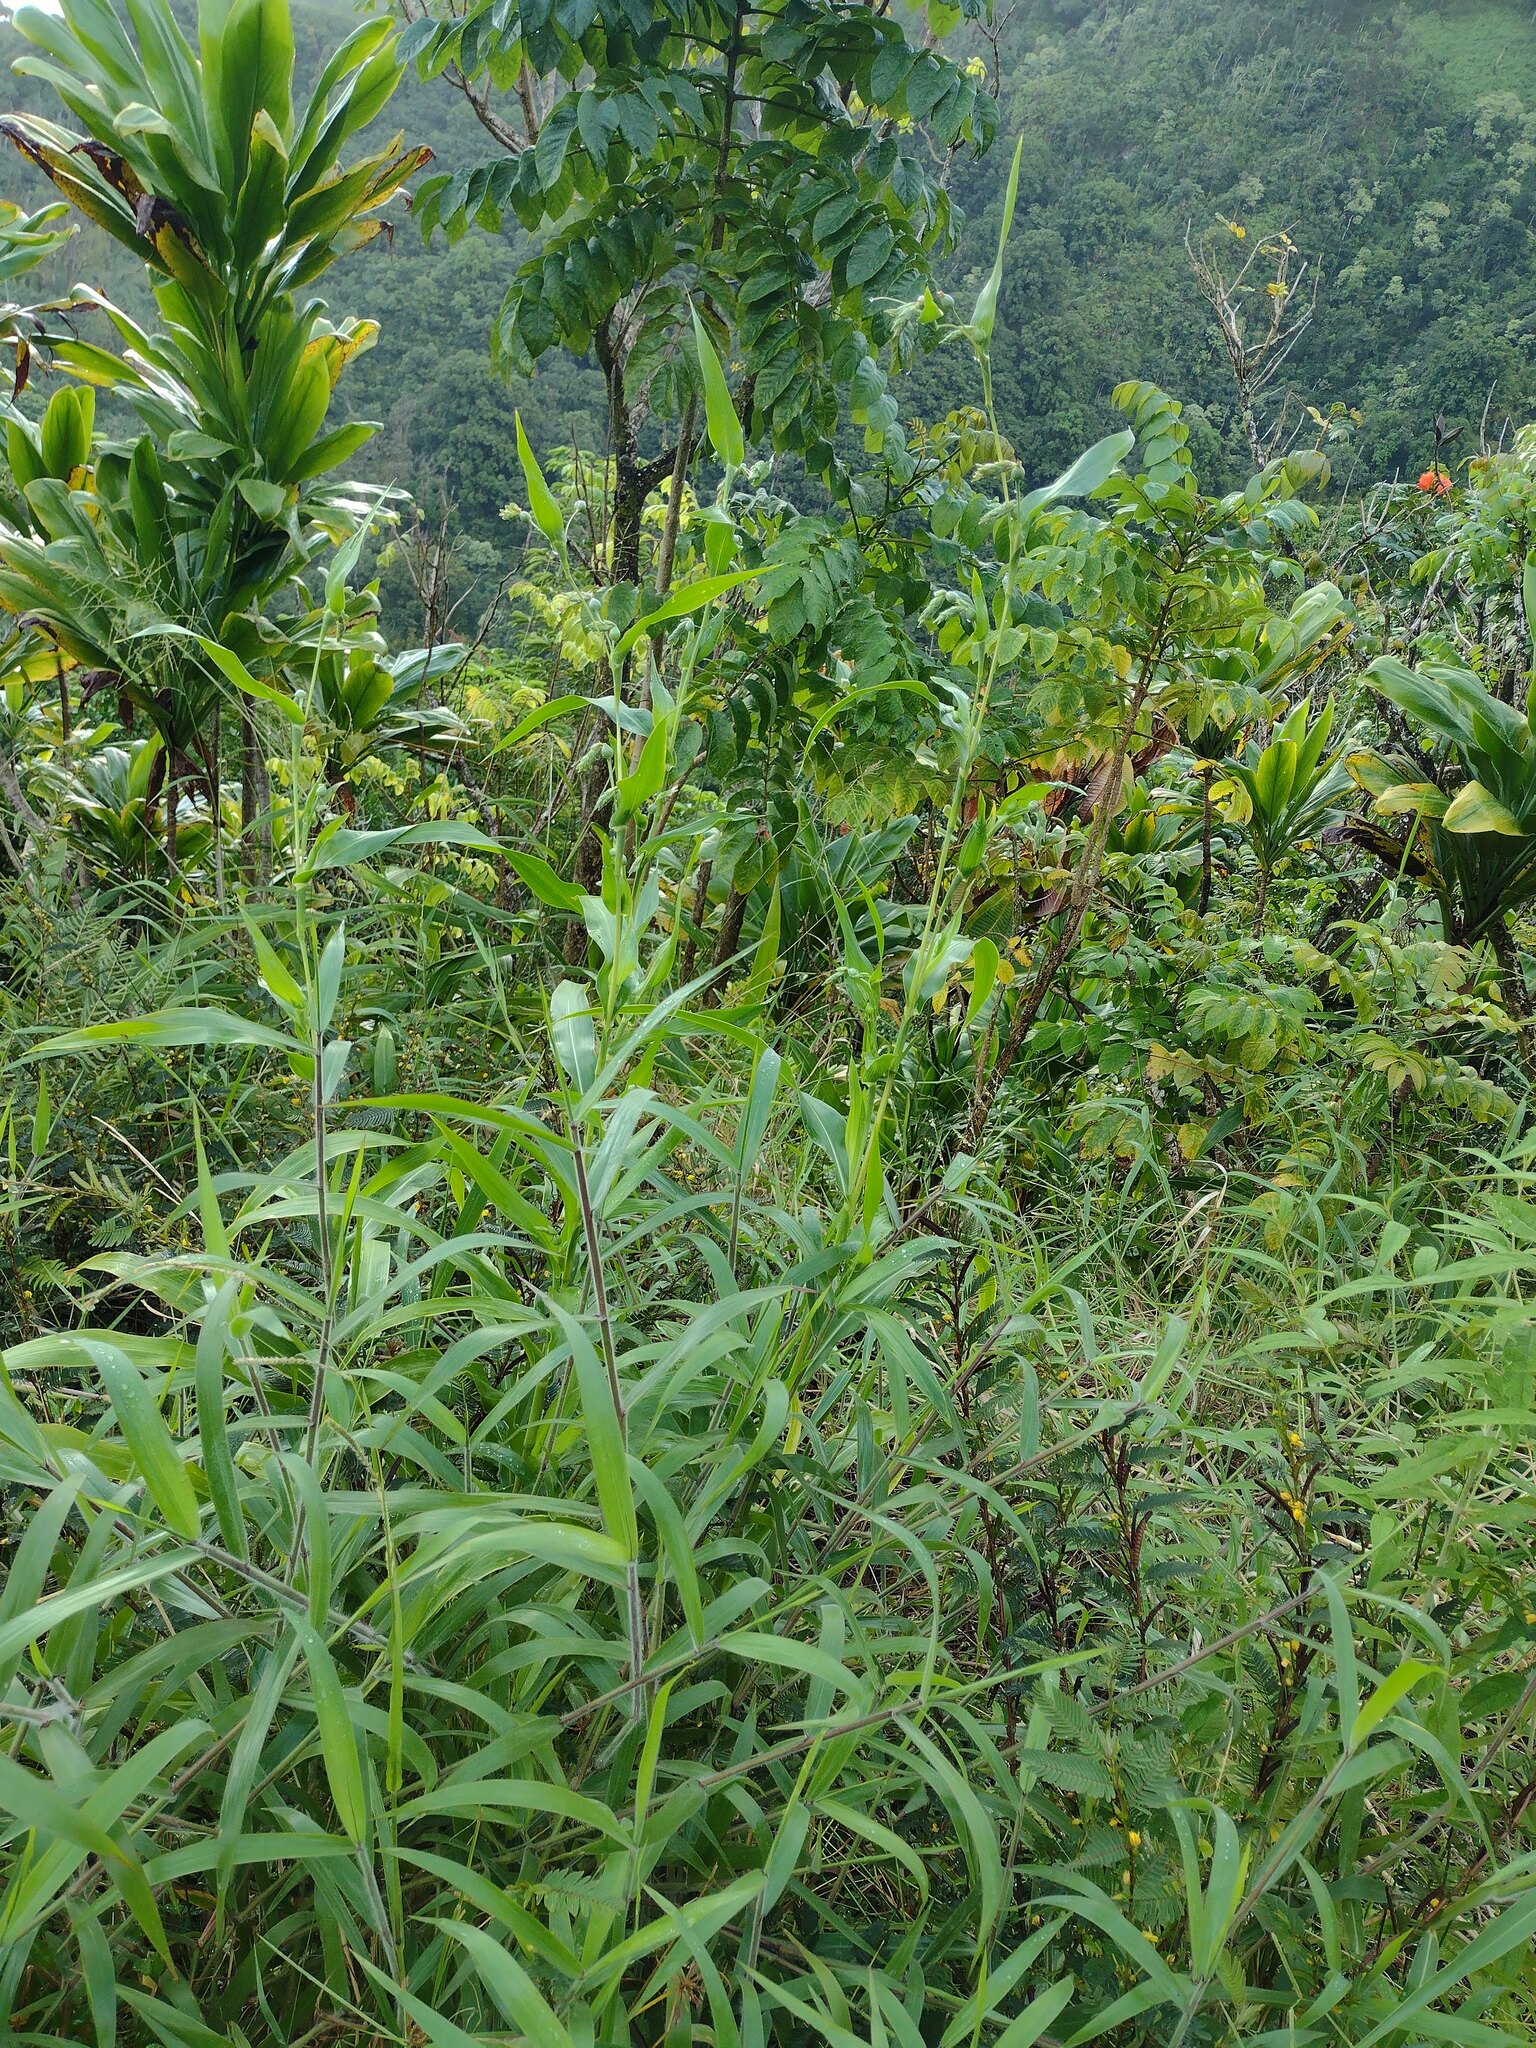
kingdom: Plantae
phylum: Tracheophyta
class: Liliopsida
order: Poales
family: Poaceae
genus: Coix
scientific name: Coix lacryma-jobi
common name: Job's tears
